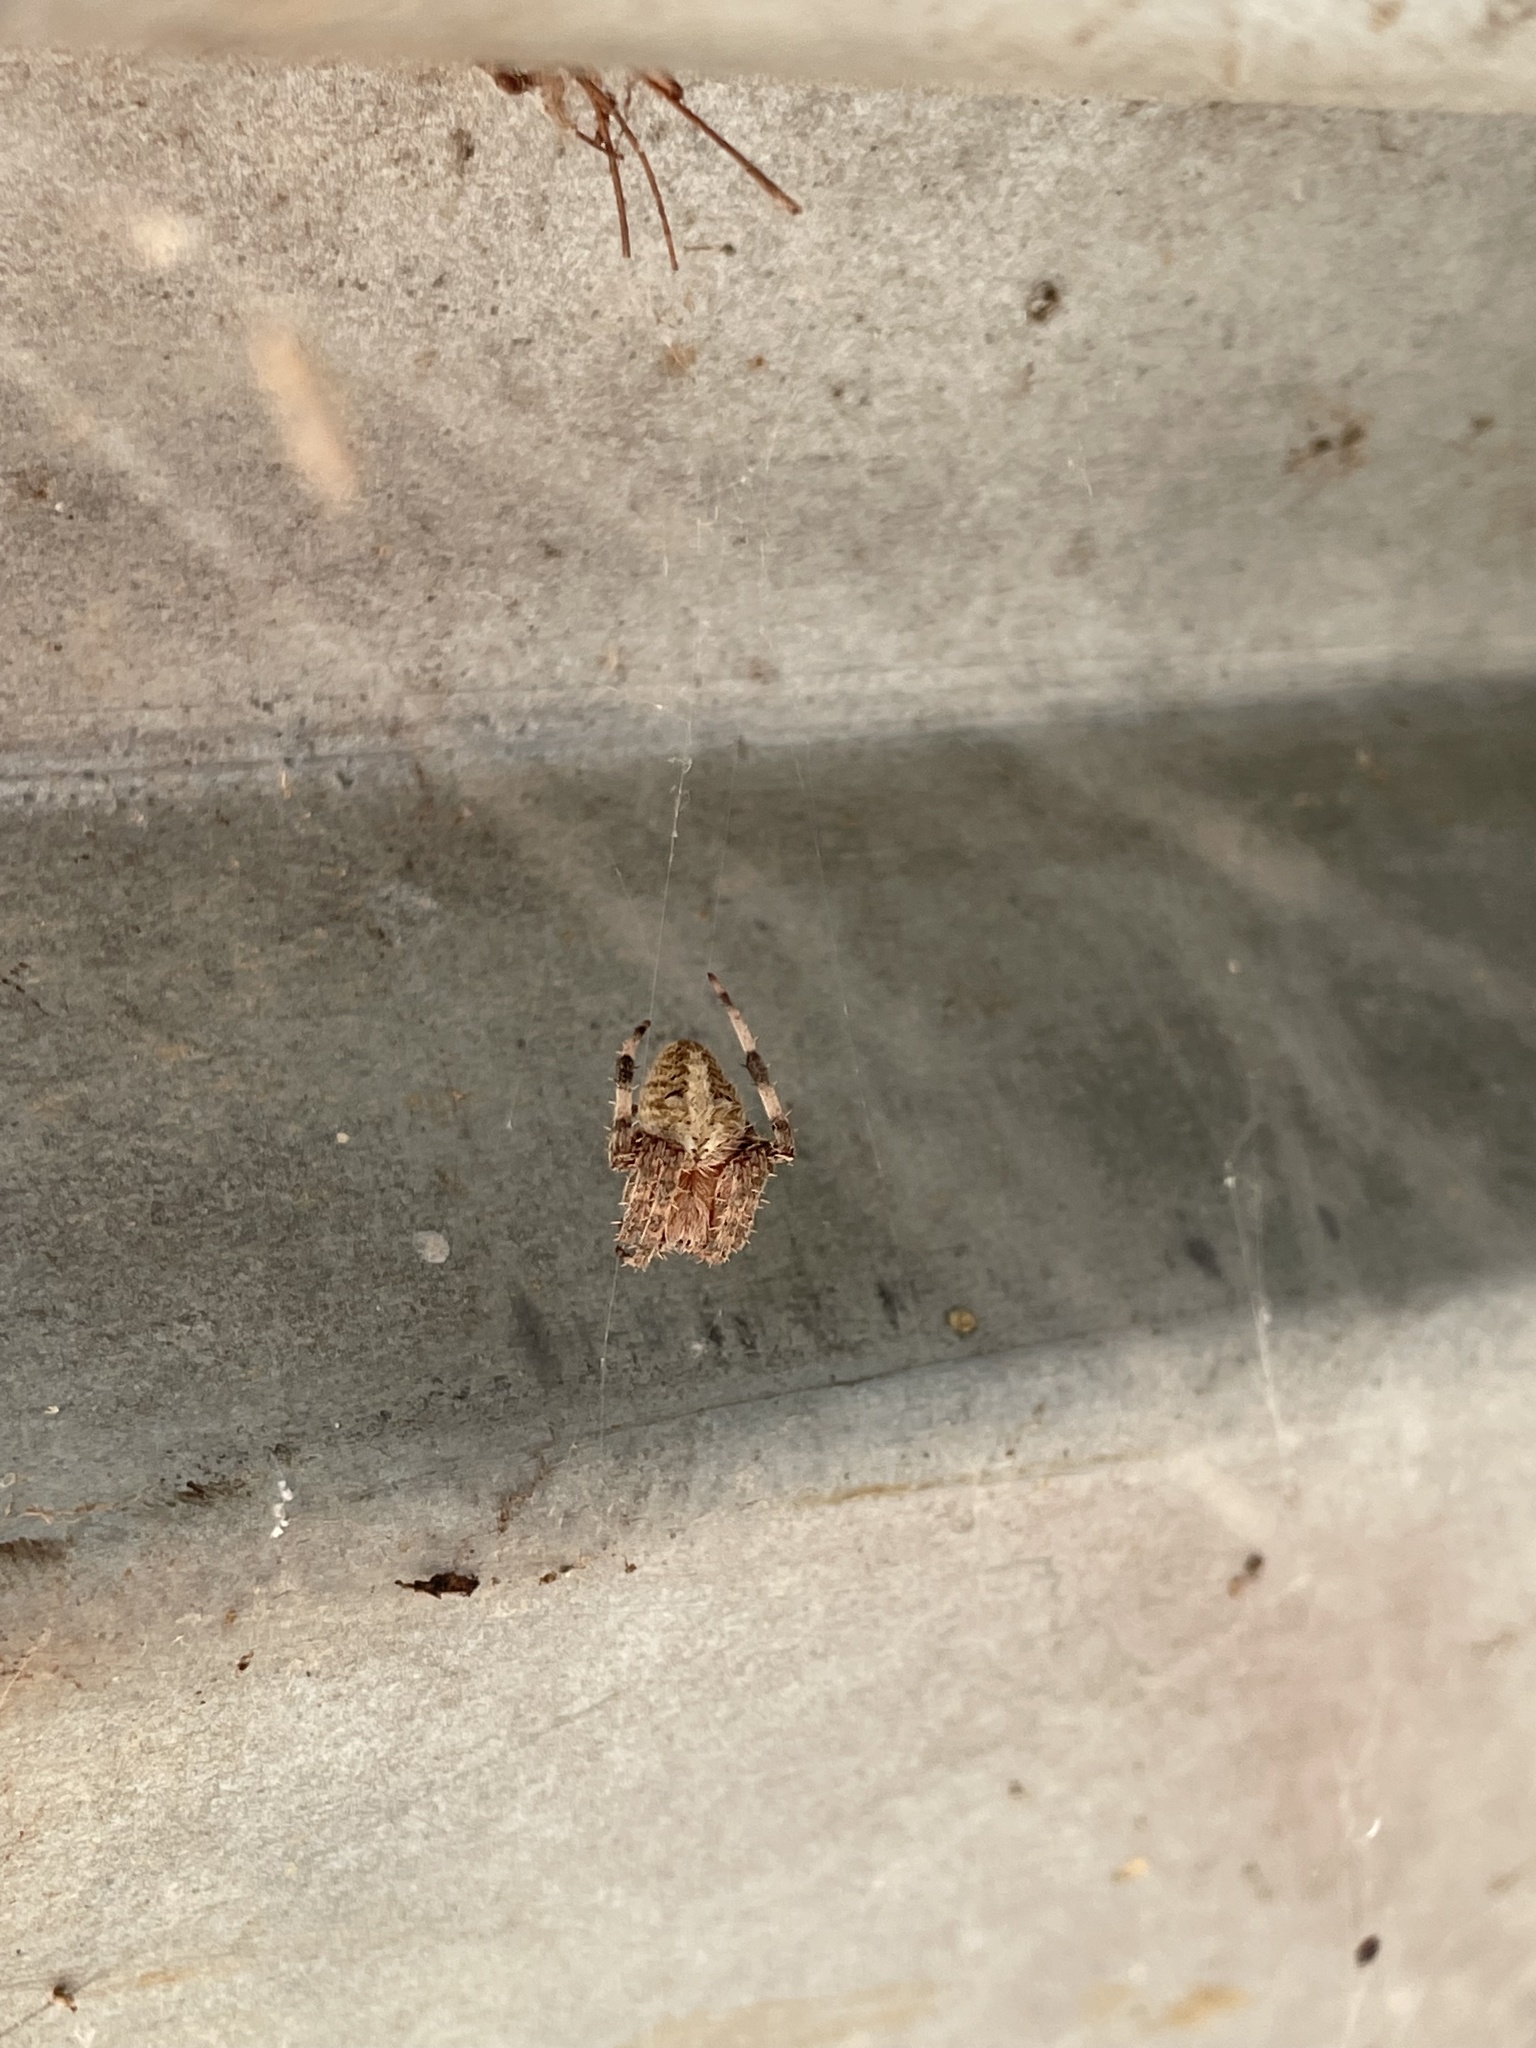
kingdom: Animalia
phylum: Arthropoda
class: Arachnida
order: Araneae
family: Araneidae
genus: Neoscona
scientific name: Neoscona crucifera
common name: Spotted orbweaver
